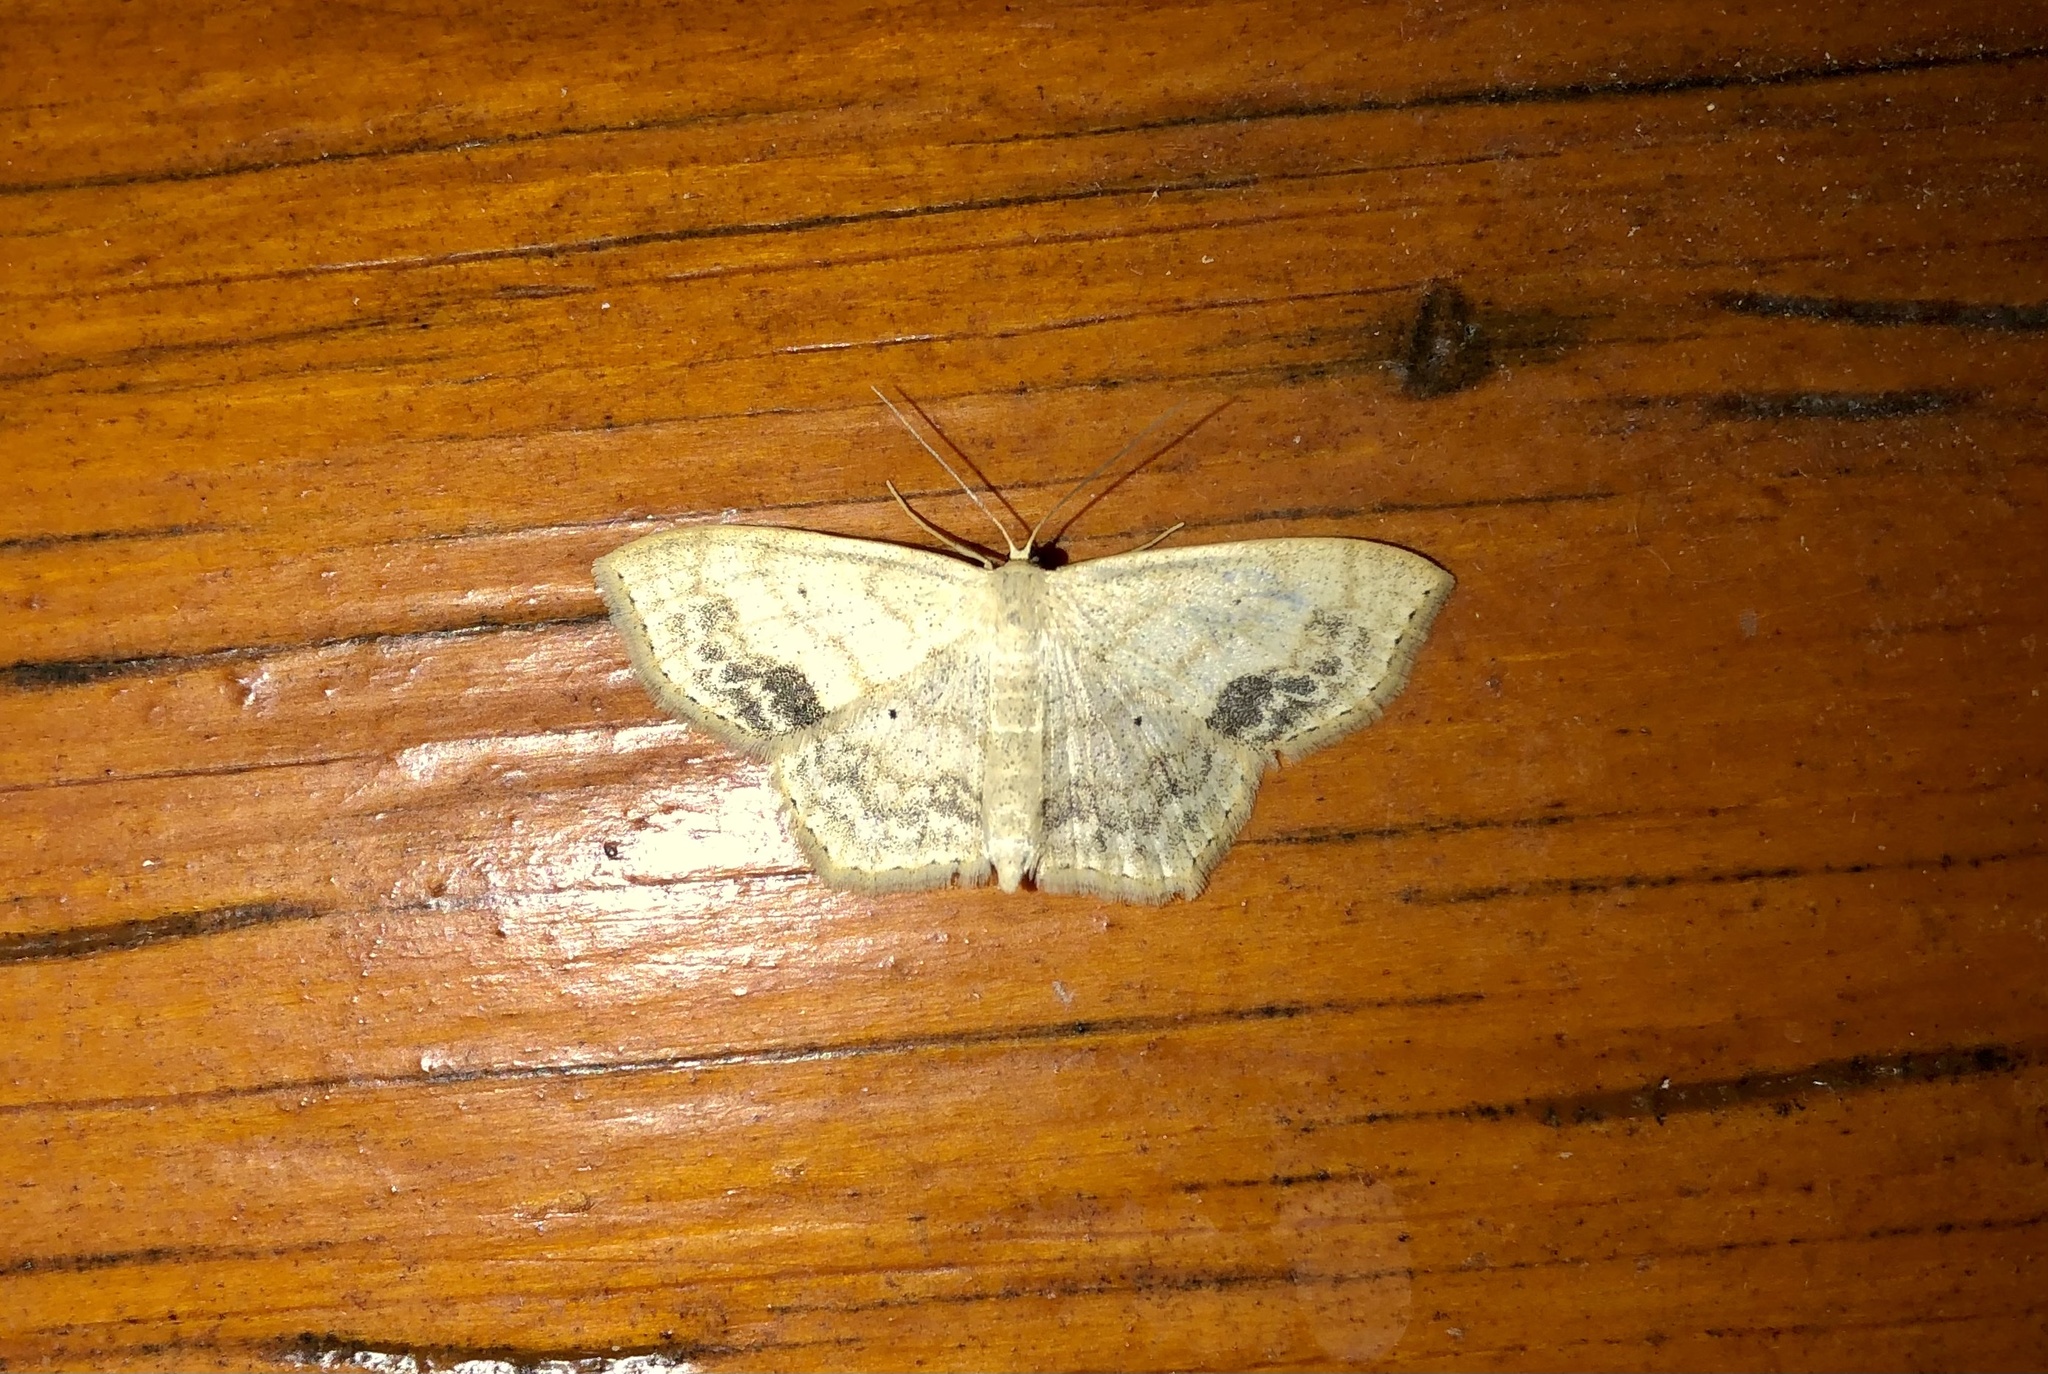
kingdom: Animalia
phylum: Arthropoda
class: Insecta
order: Lepidoptera
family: Geometridae
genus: Scopula
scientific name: Scopula limboundata
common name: Large lace border
